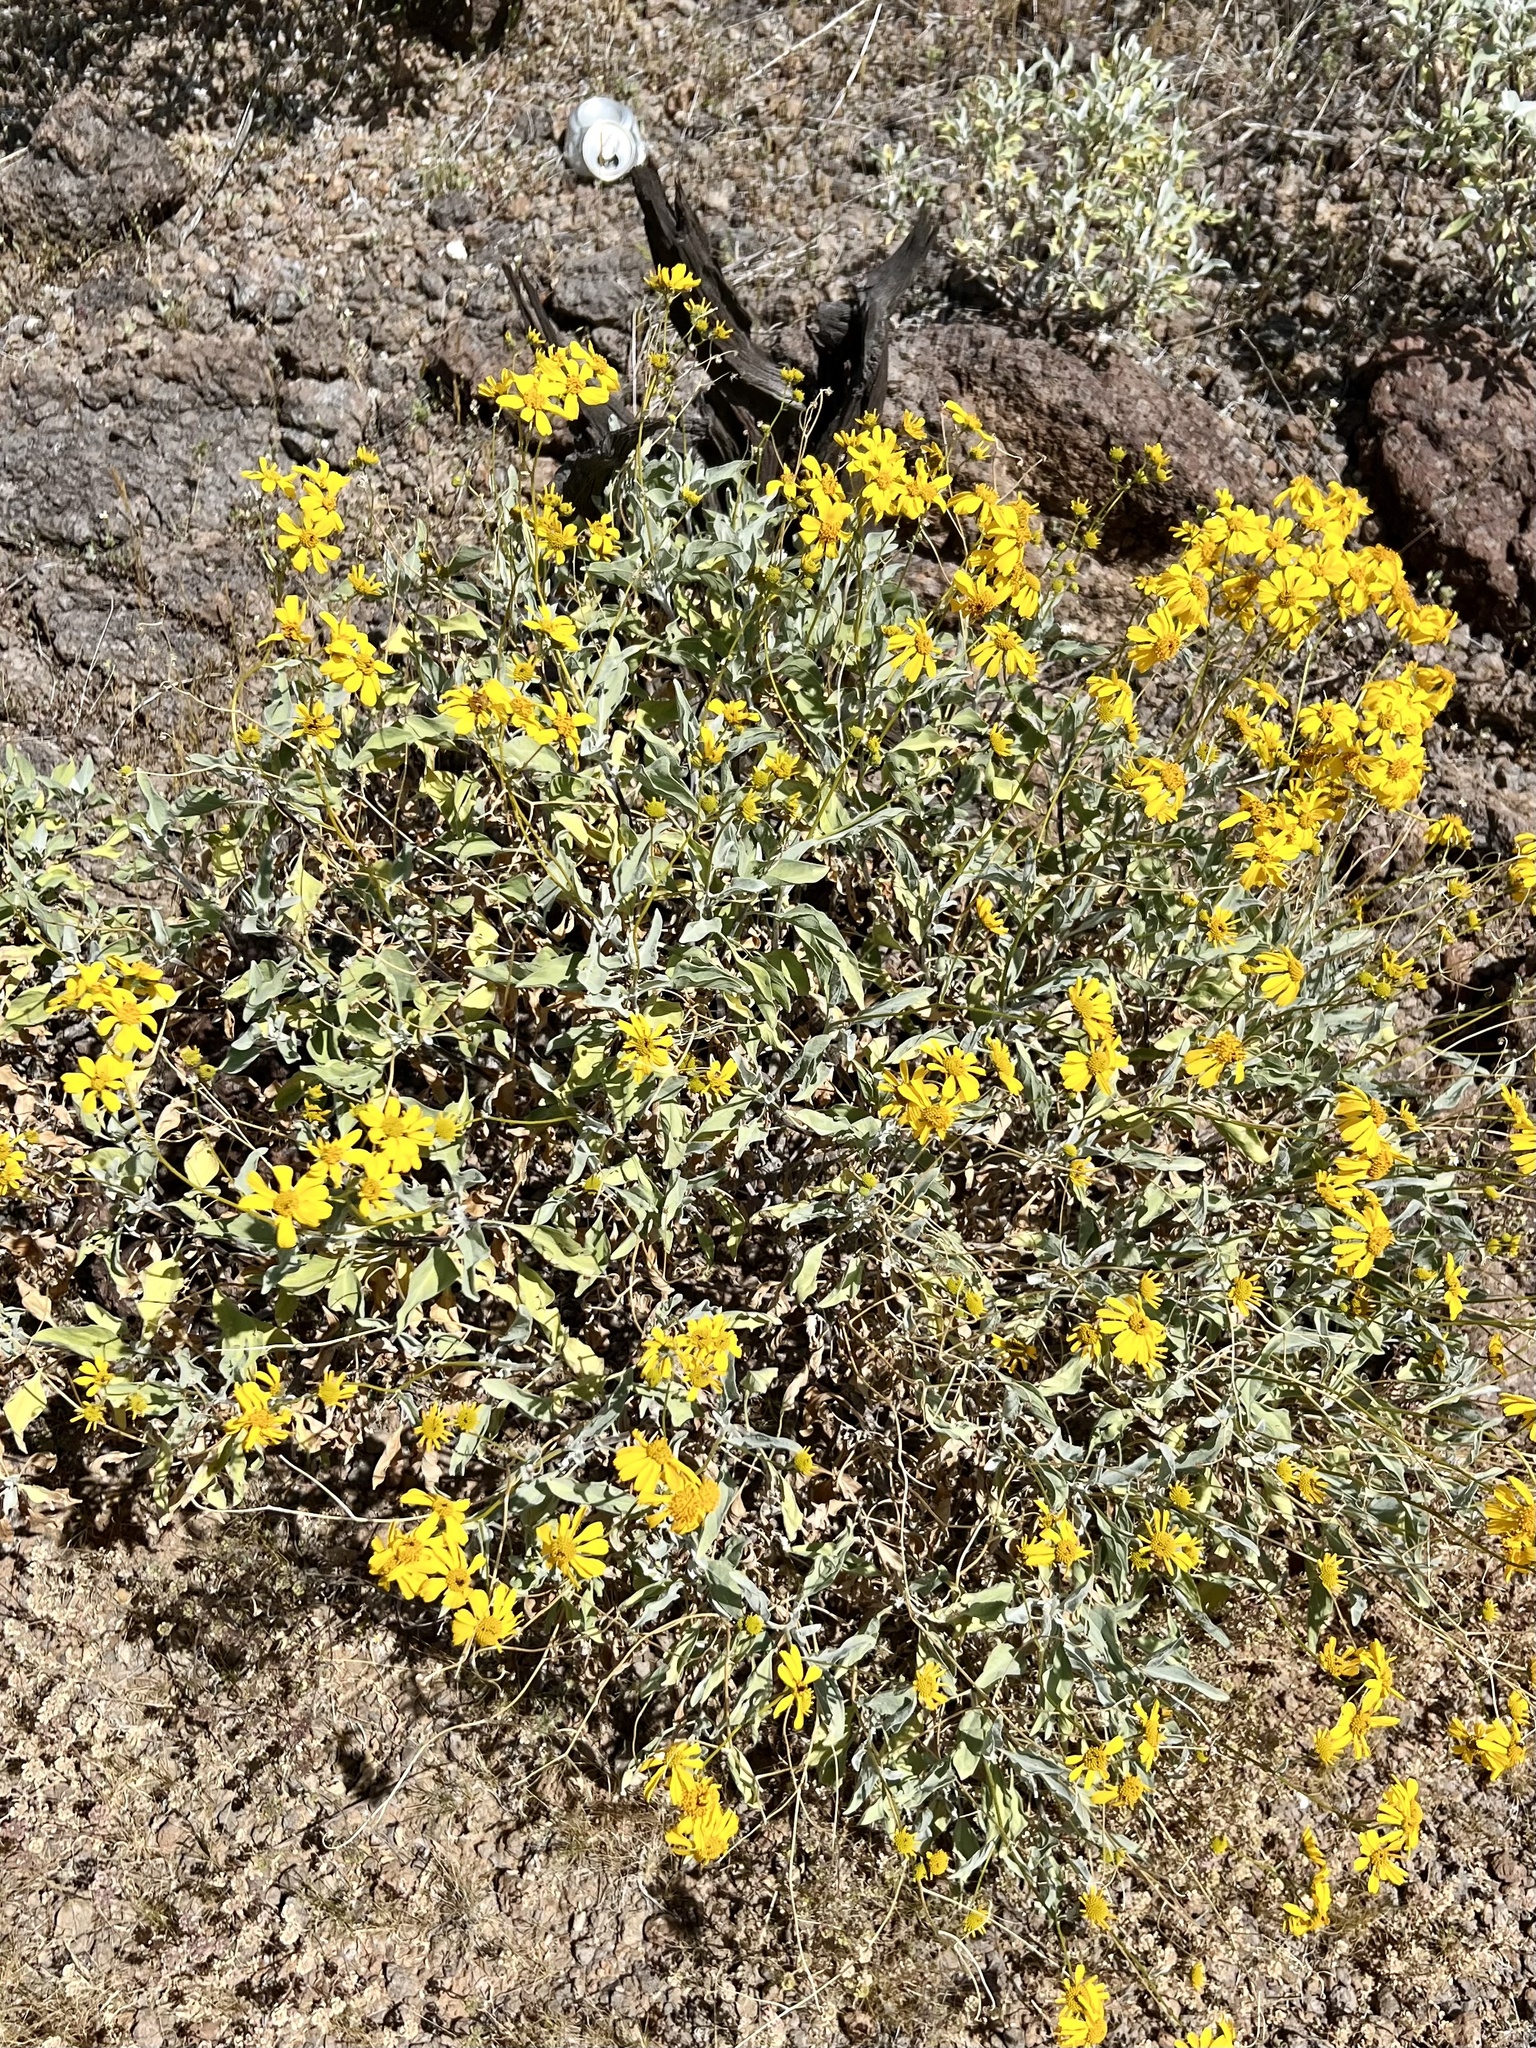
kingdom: Plantae
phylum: Tracheophyta
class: Magnoliopsida
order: Asterales
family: Asteraceae
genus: Encelia
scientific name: Encelia farinosa
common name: Brittlebush
